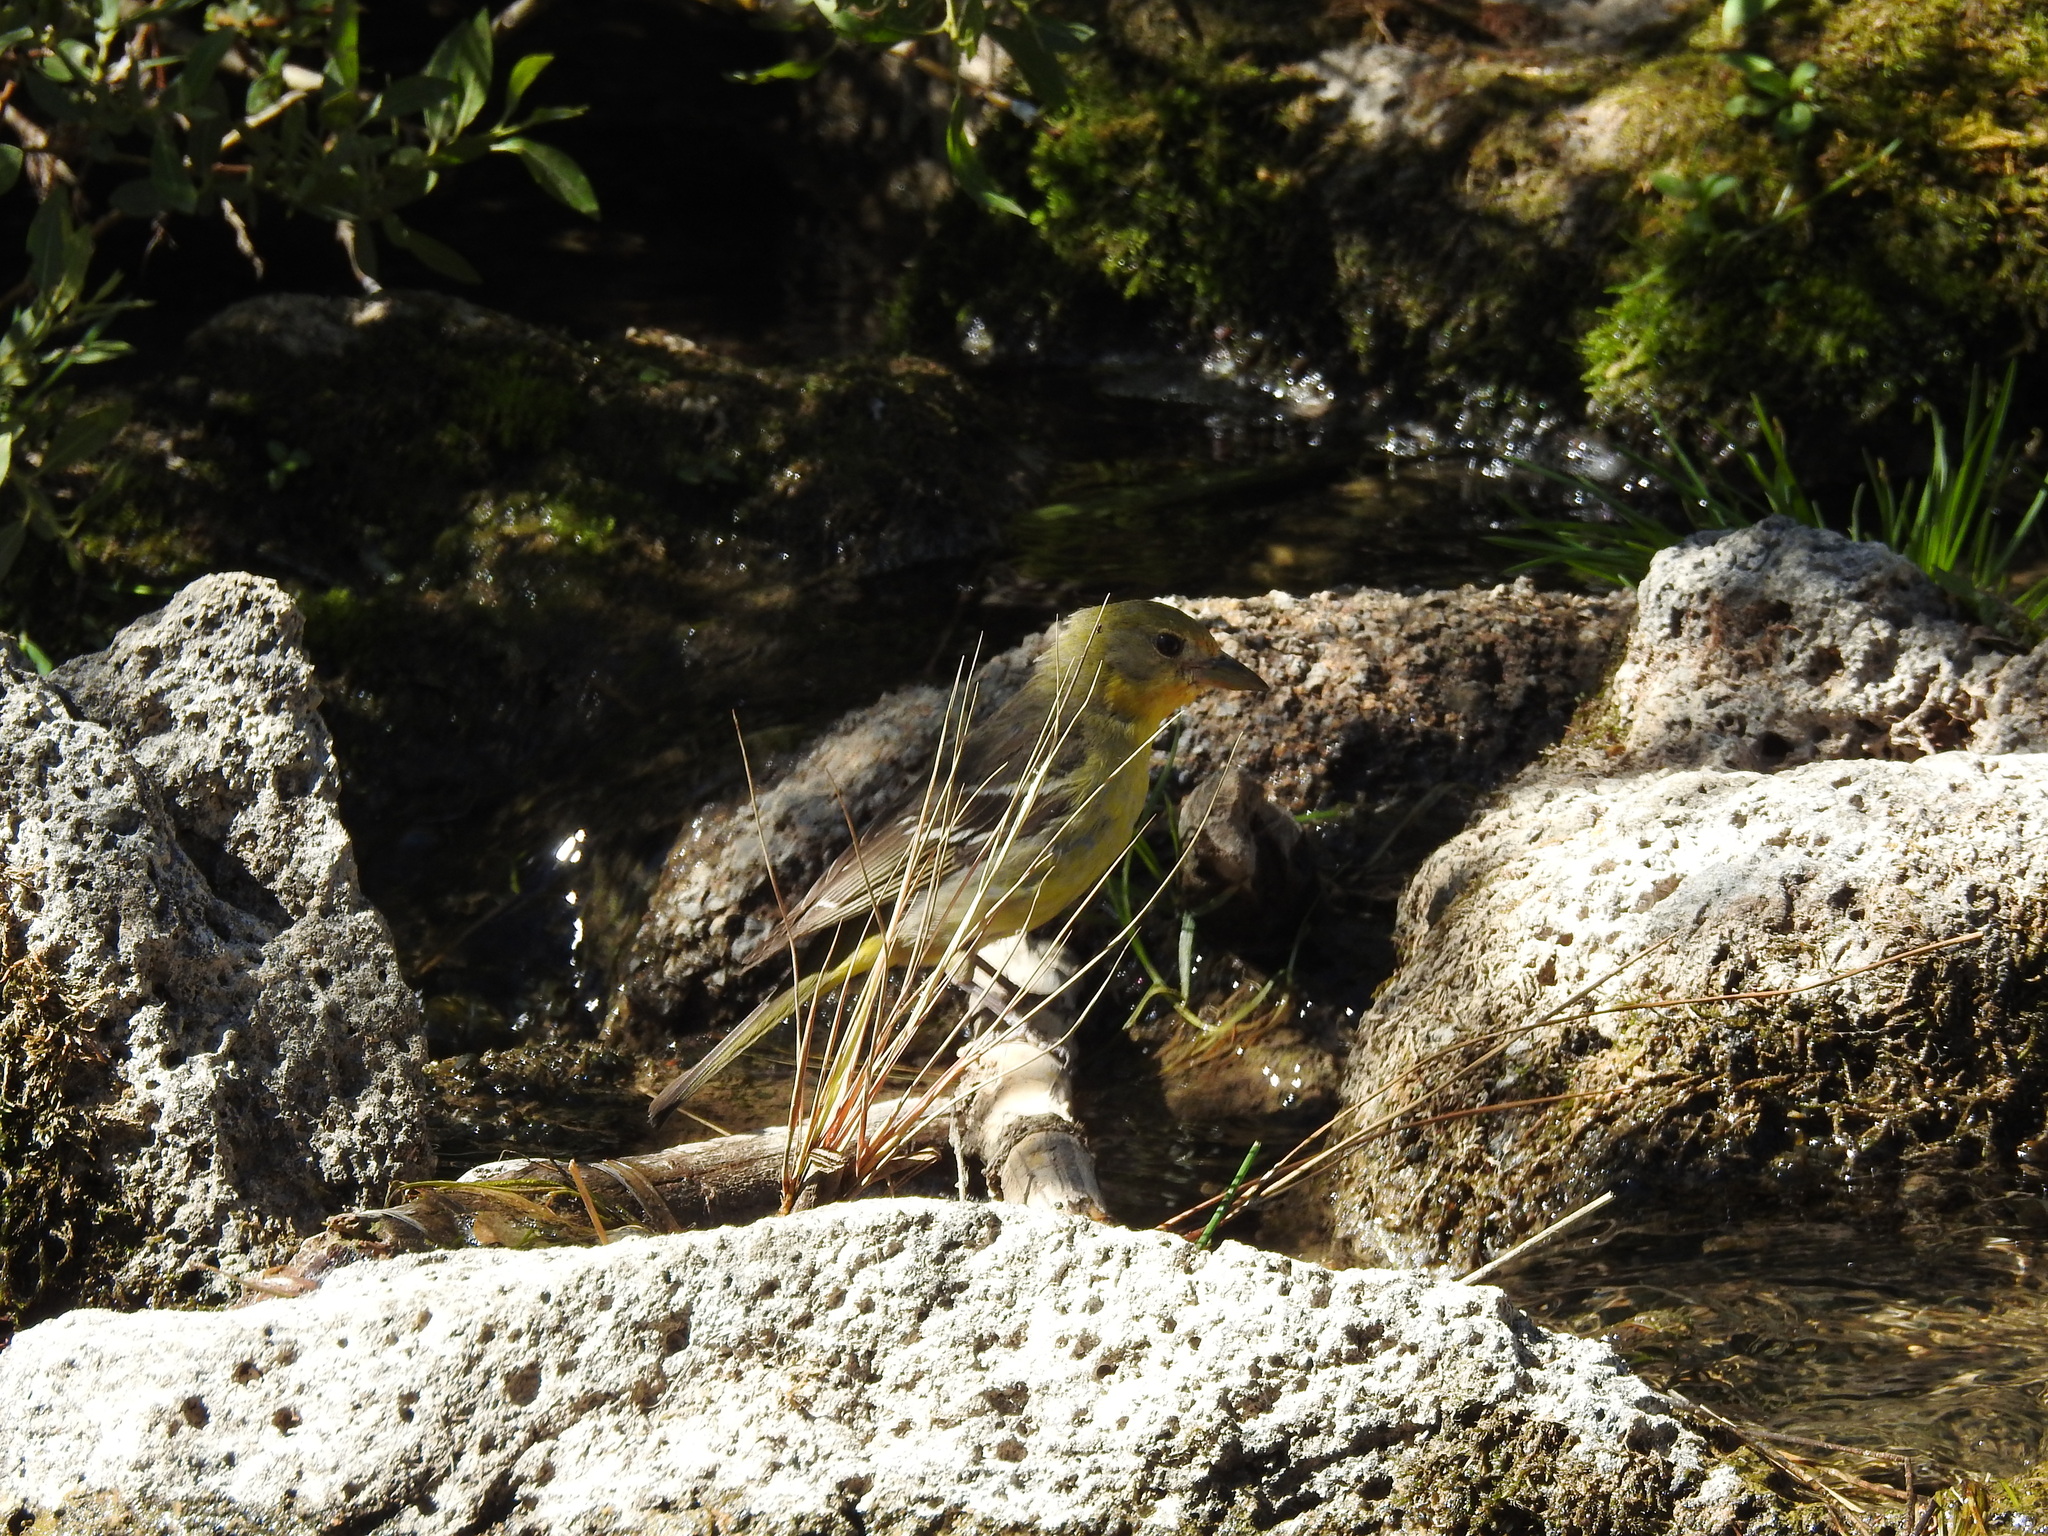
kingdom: Animalia
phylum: Chordata
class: Aves
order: Passeriformes
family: Cardinalidae
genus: Piranga
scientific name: Piranga ludoviciana
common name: Western tanager
